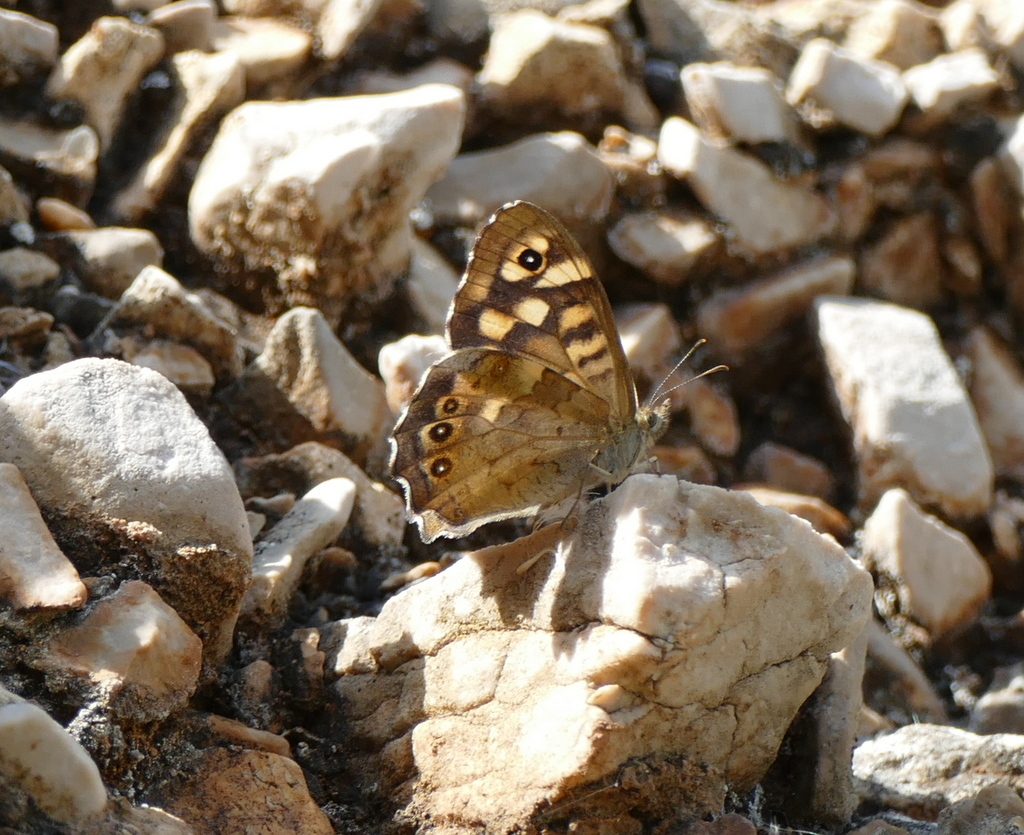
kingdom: Animalia
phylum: Arthropoda
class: Insecta
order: Lepidoptera
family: Nymphalidae
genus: Pararge
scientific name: Pararge aegeria
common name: Speckled wood
